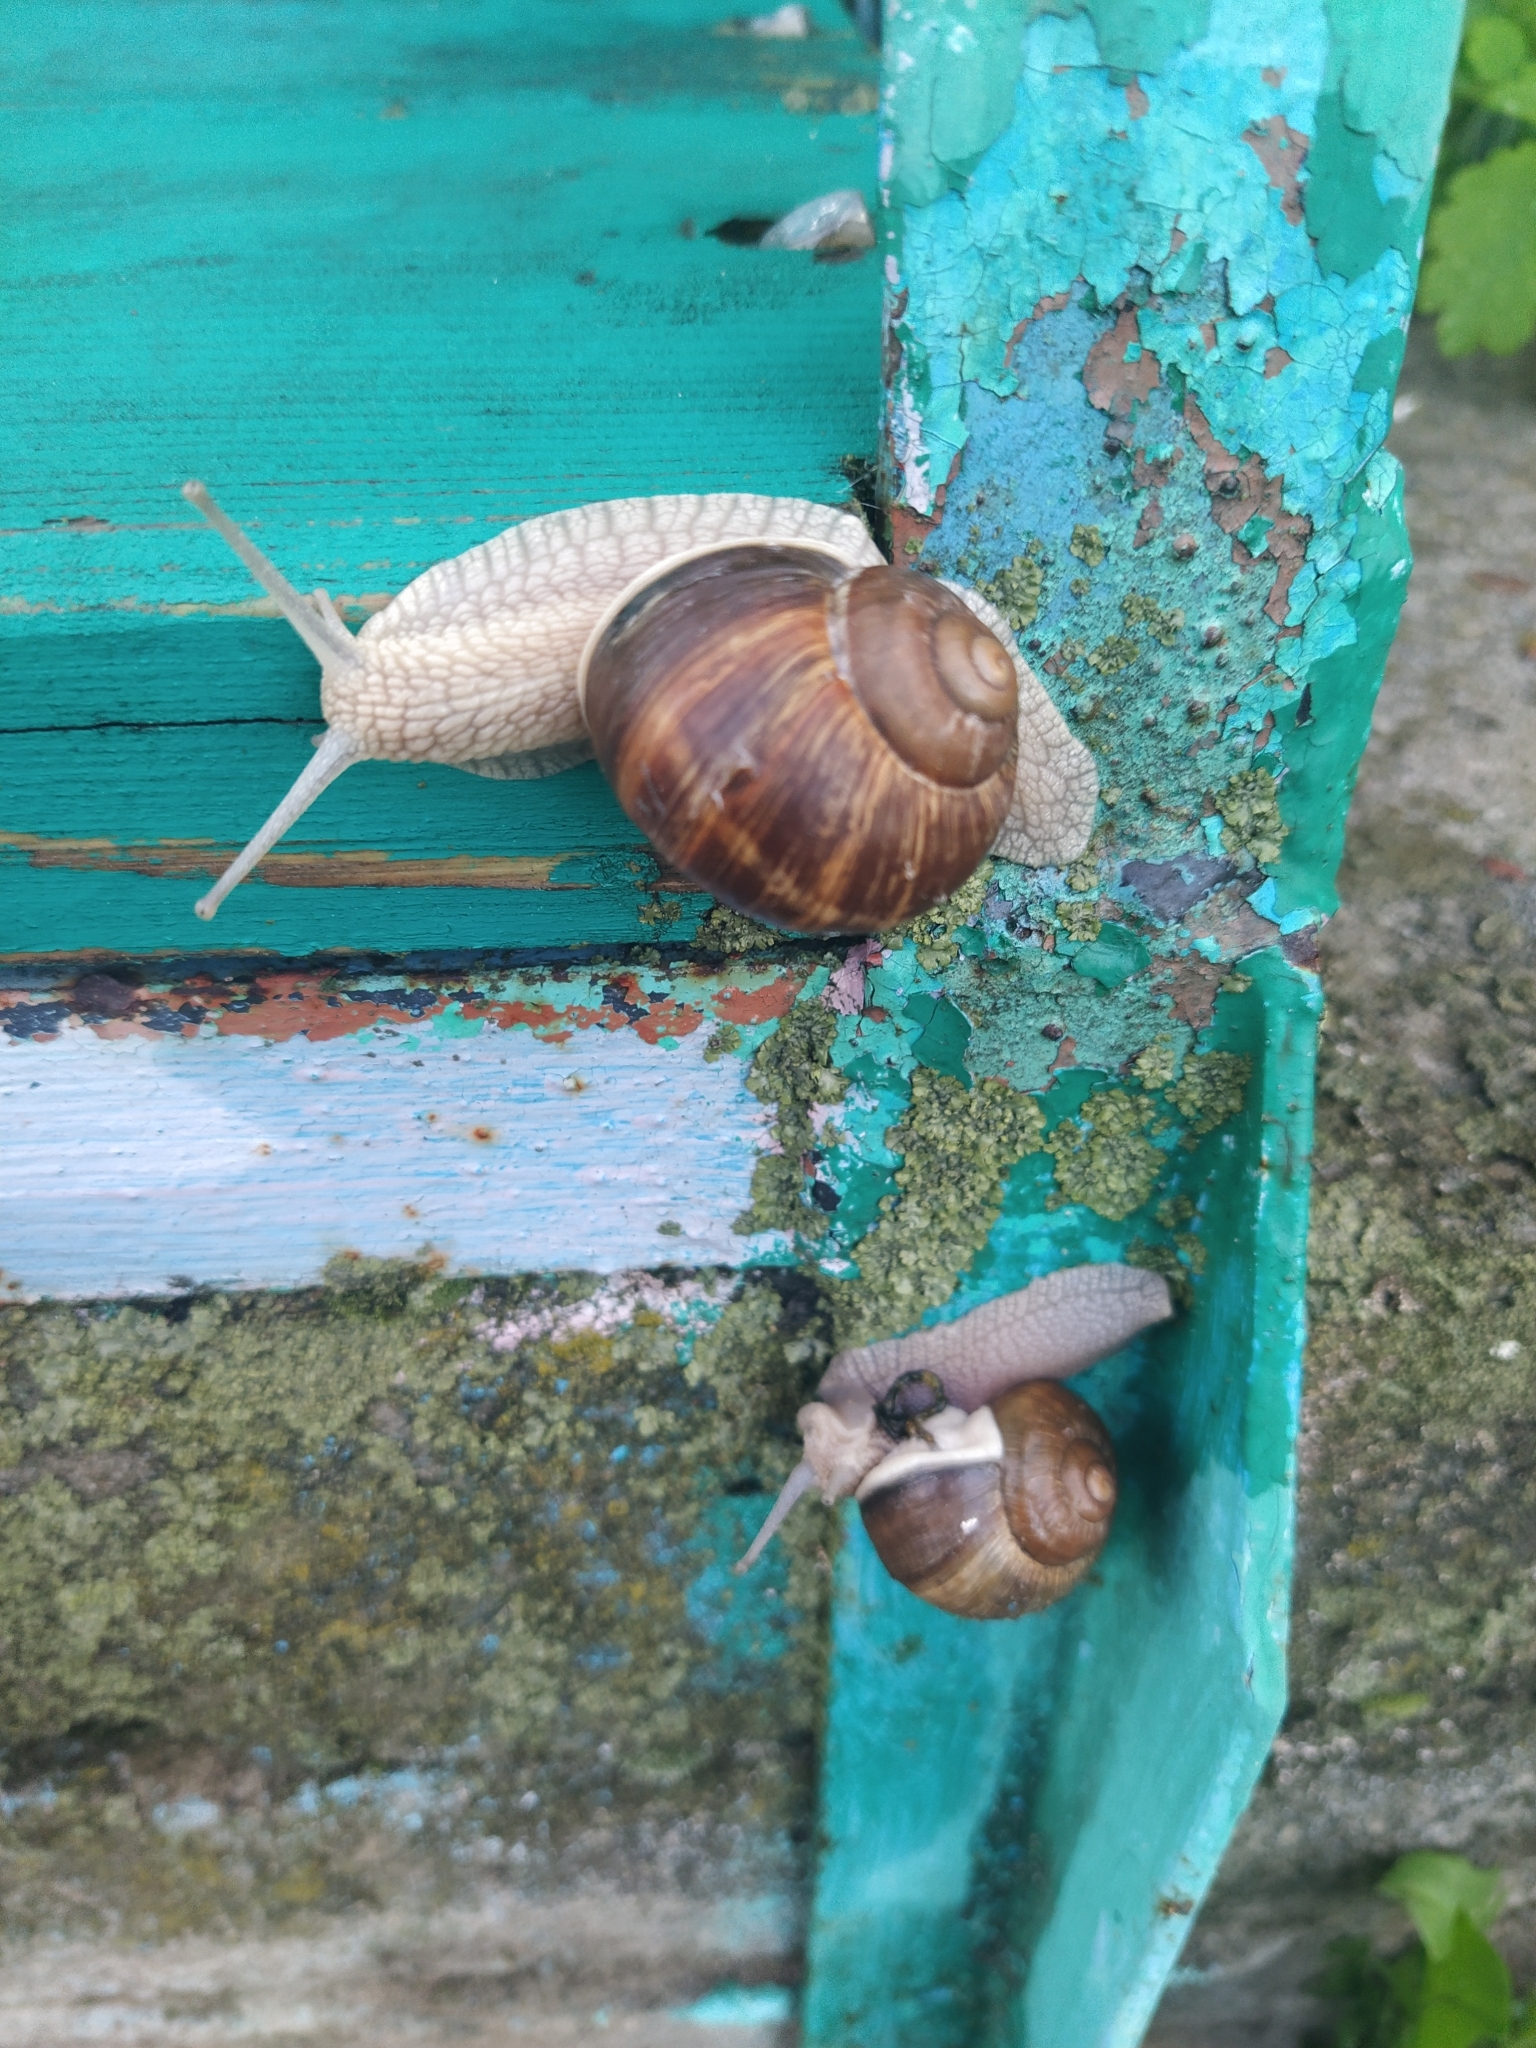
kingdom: Animalia
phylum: Mollusca
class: Gastropoda
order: Stylommatophora
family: Helicidae
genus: Helix
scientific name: Helix pomatia
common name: Roman snail
